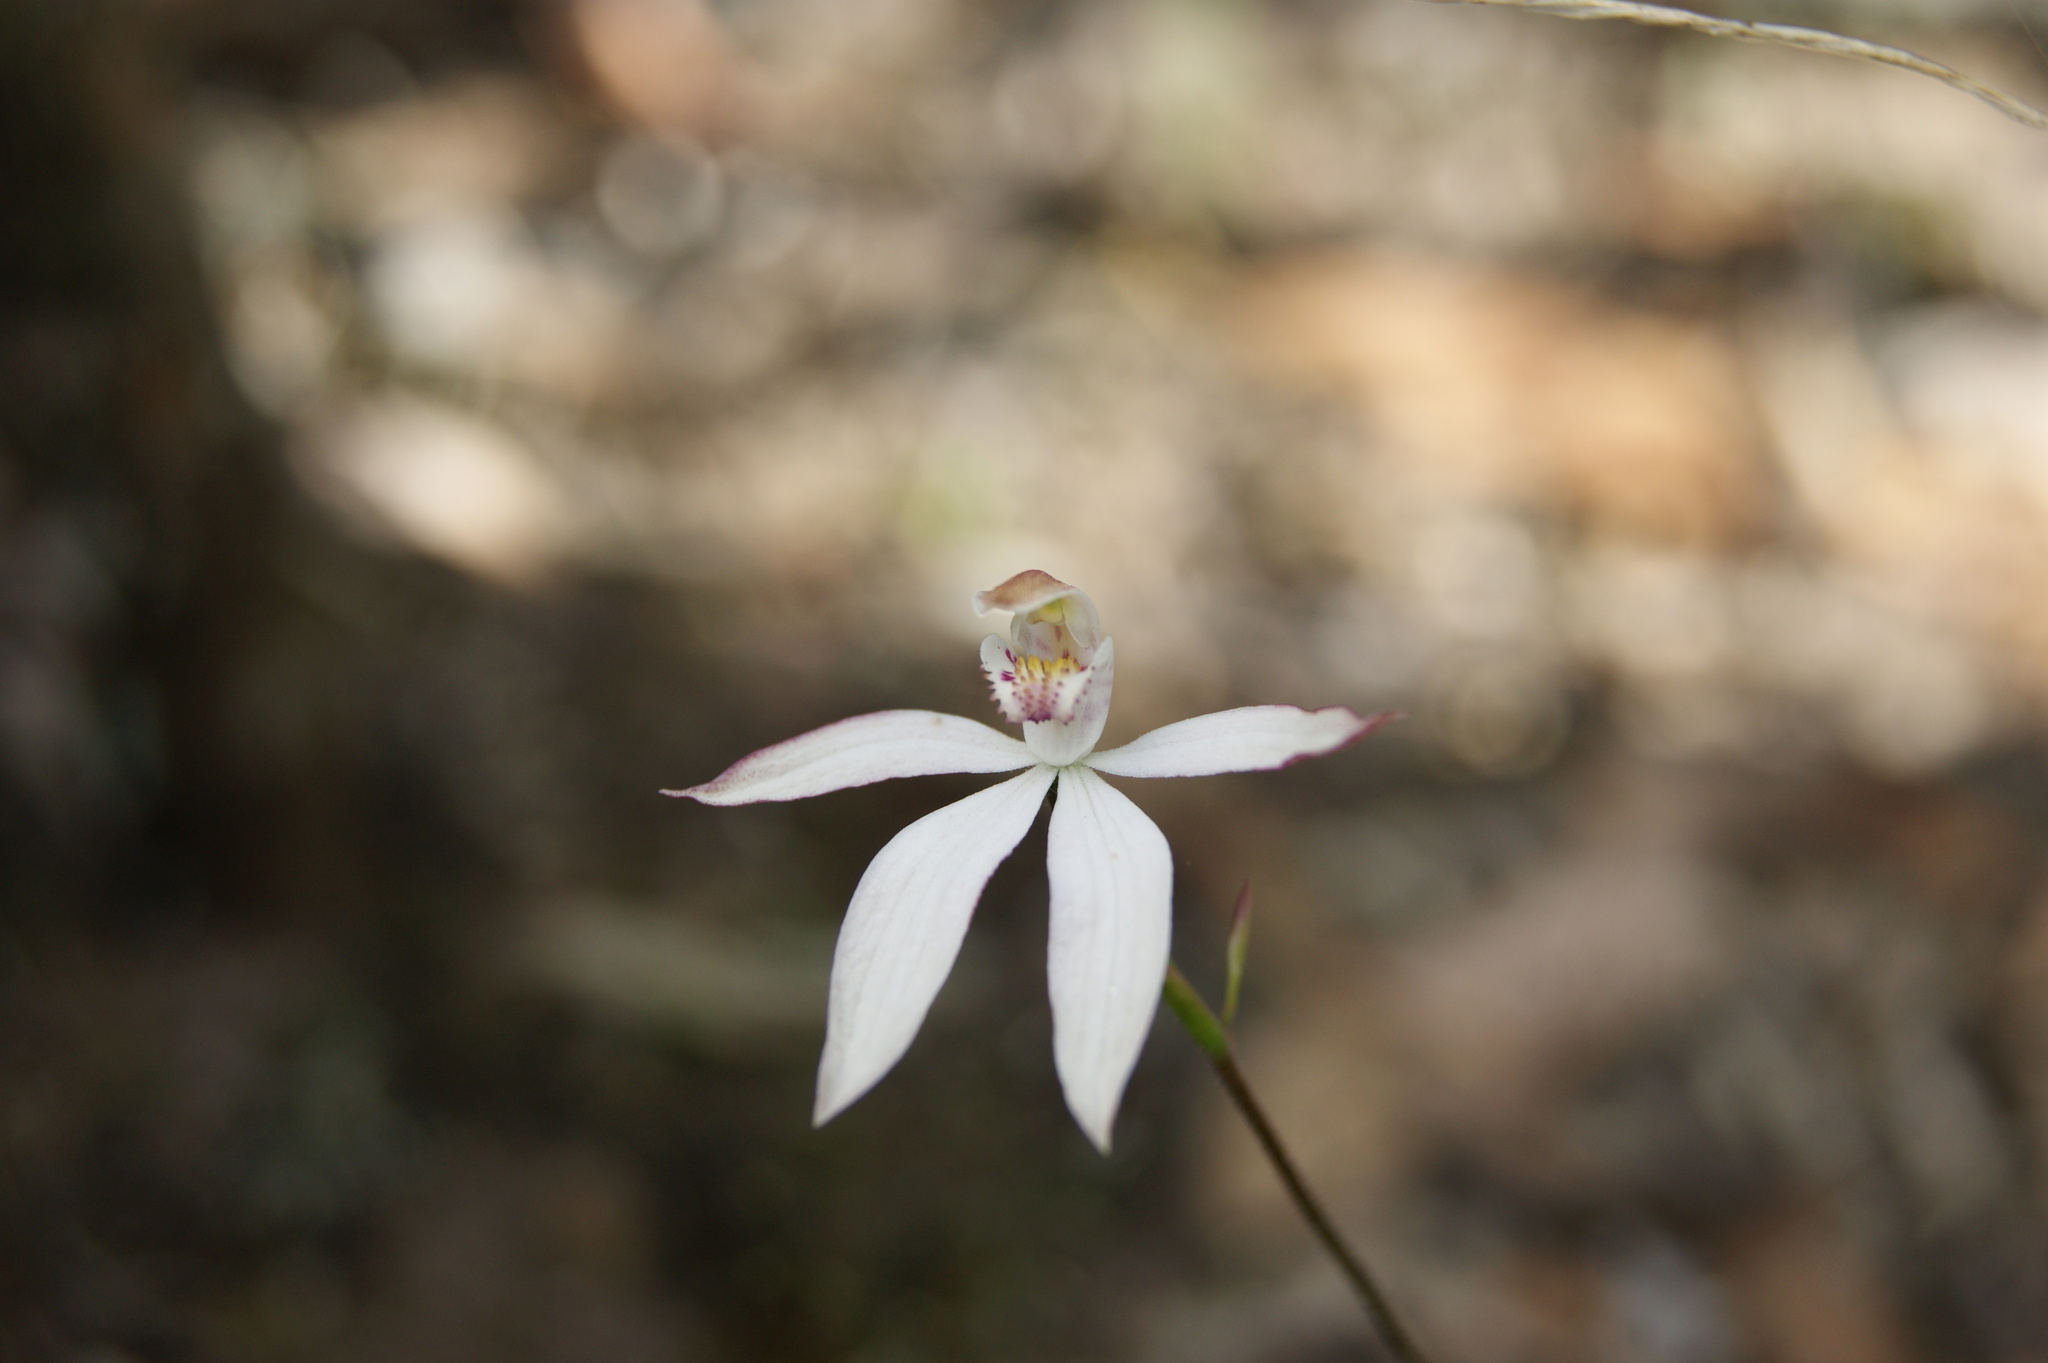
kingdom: Plantae
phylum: Tracheophyta
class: Liliopsida
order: Asparagales
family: Orchidaceae
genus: Caladenia
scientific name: Caladenia moschata
